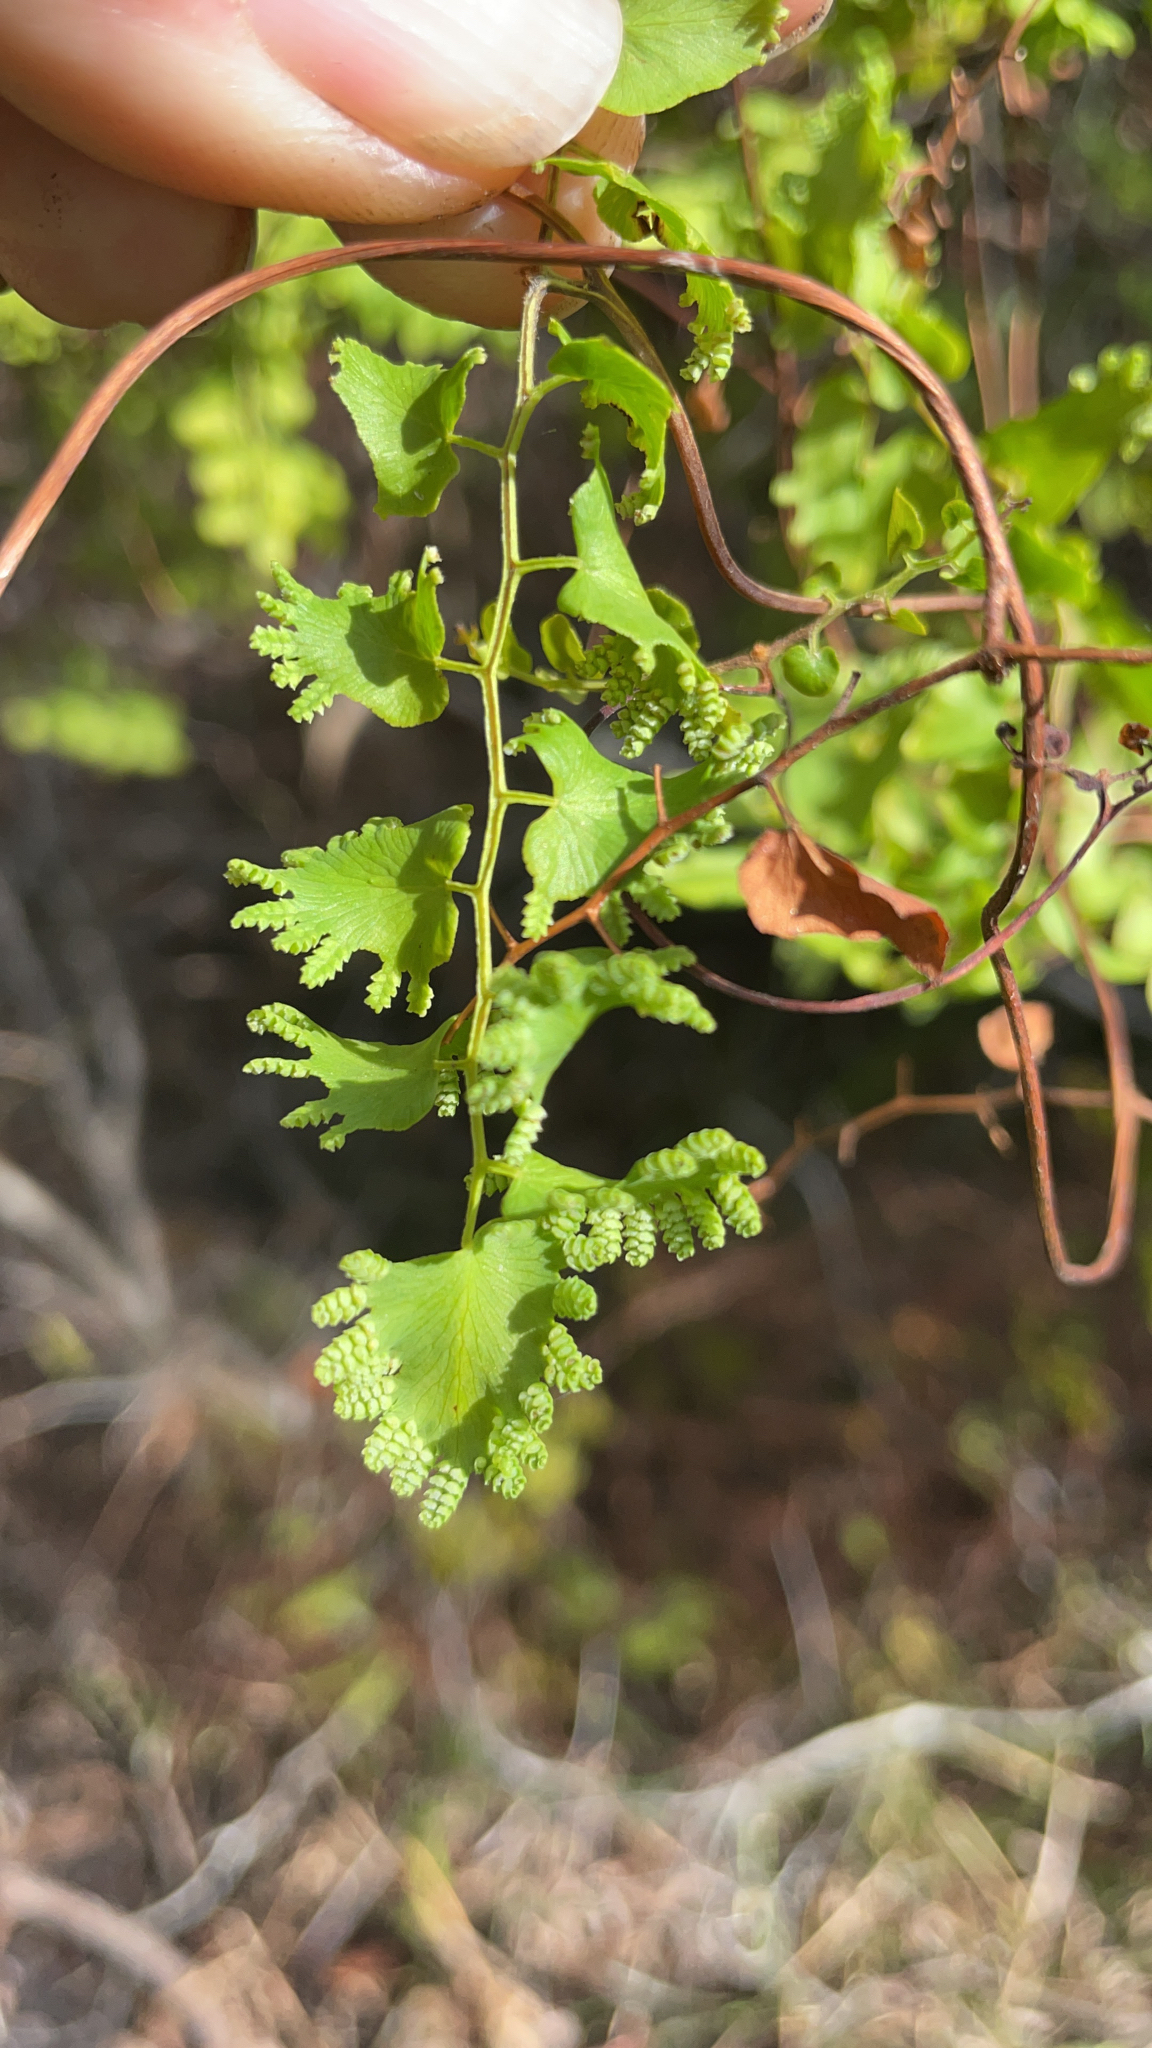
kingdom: Plantae
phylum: Tracheophyta
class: Polypodiopsida
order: Schizaeales
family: Lygodiaceae
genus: Lygodium
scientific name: Lygodium microphyllum
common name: Small-leaf climbing fern
